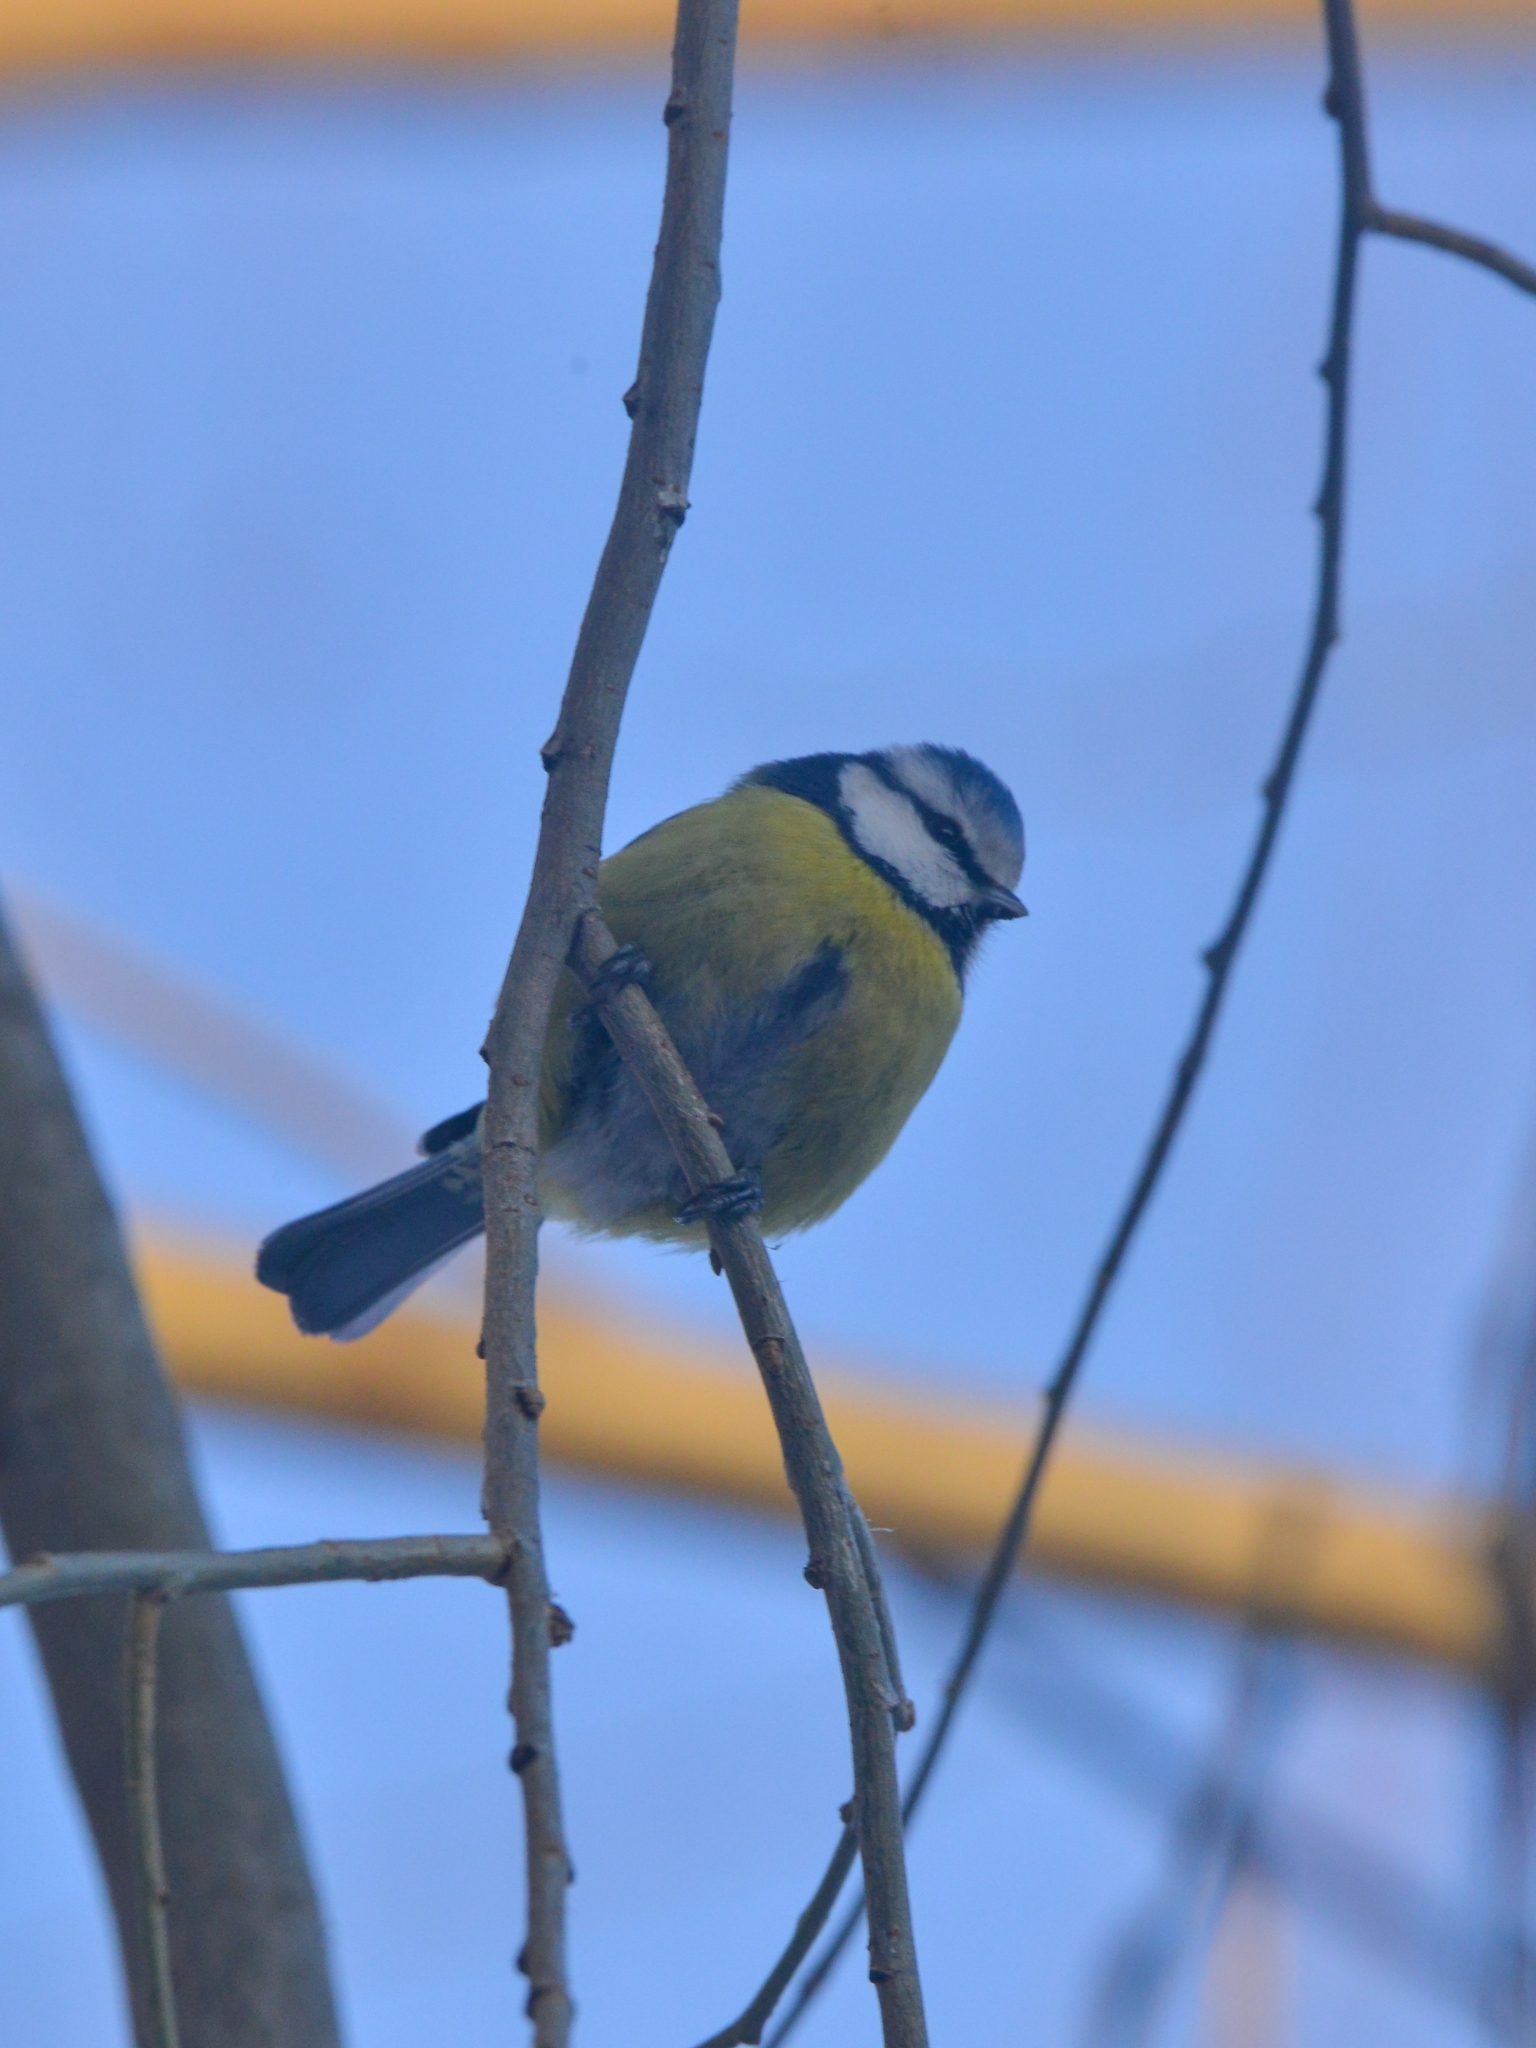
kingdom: Animalia
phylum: Chordata
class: Aves
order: Passeriformes
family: Paridae
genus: Cyanistes
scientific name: Cyanistes caeruleus
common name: Eurasian blue tit
